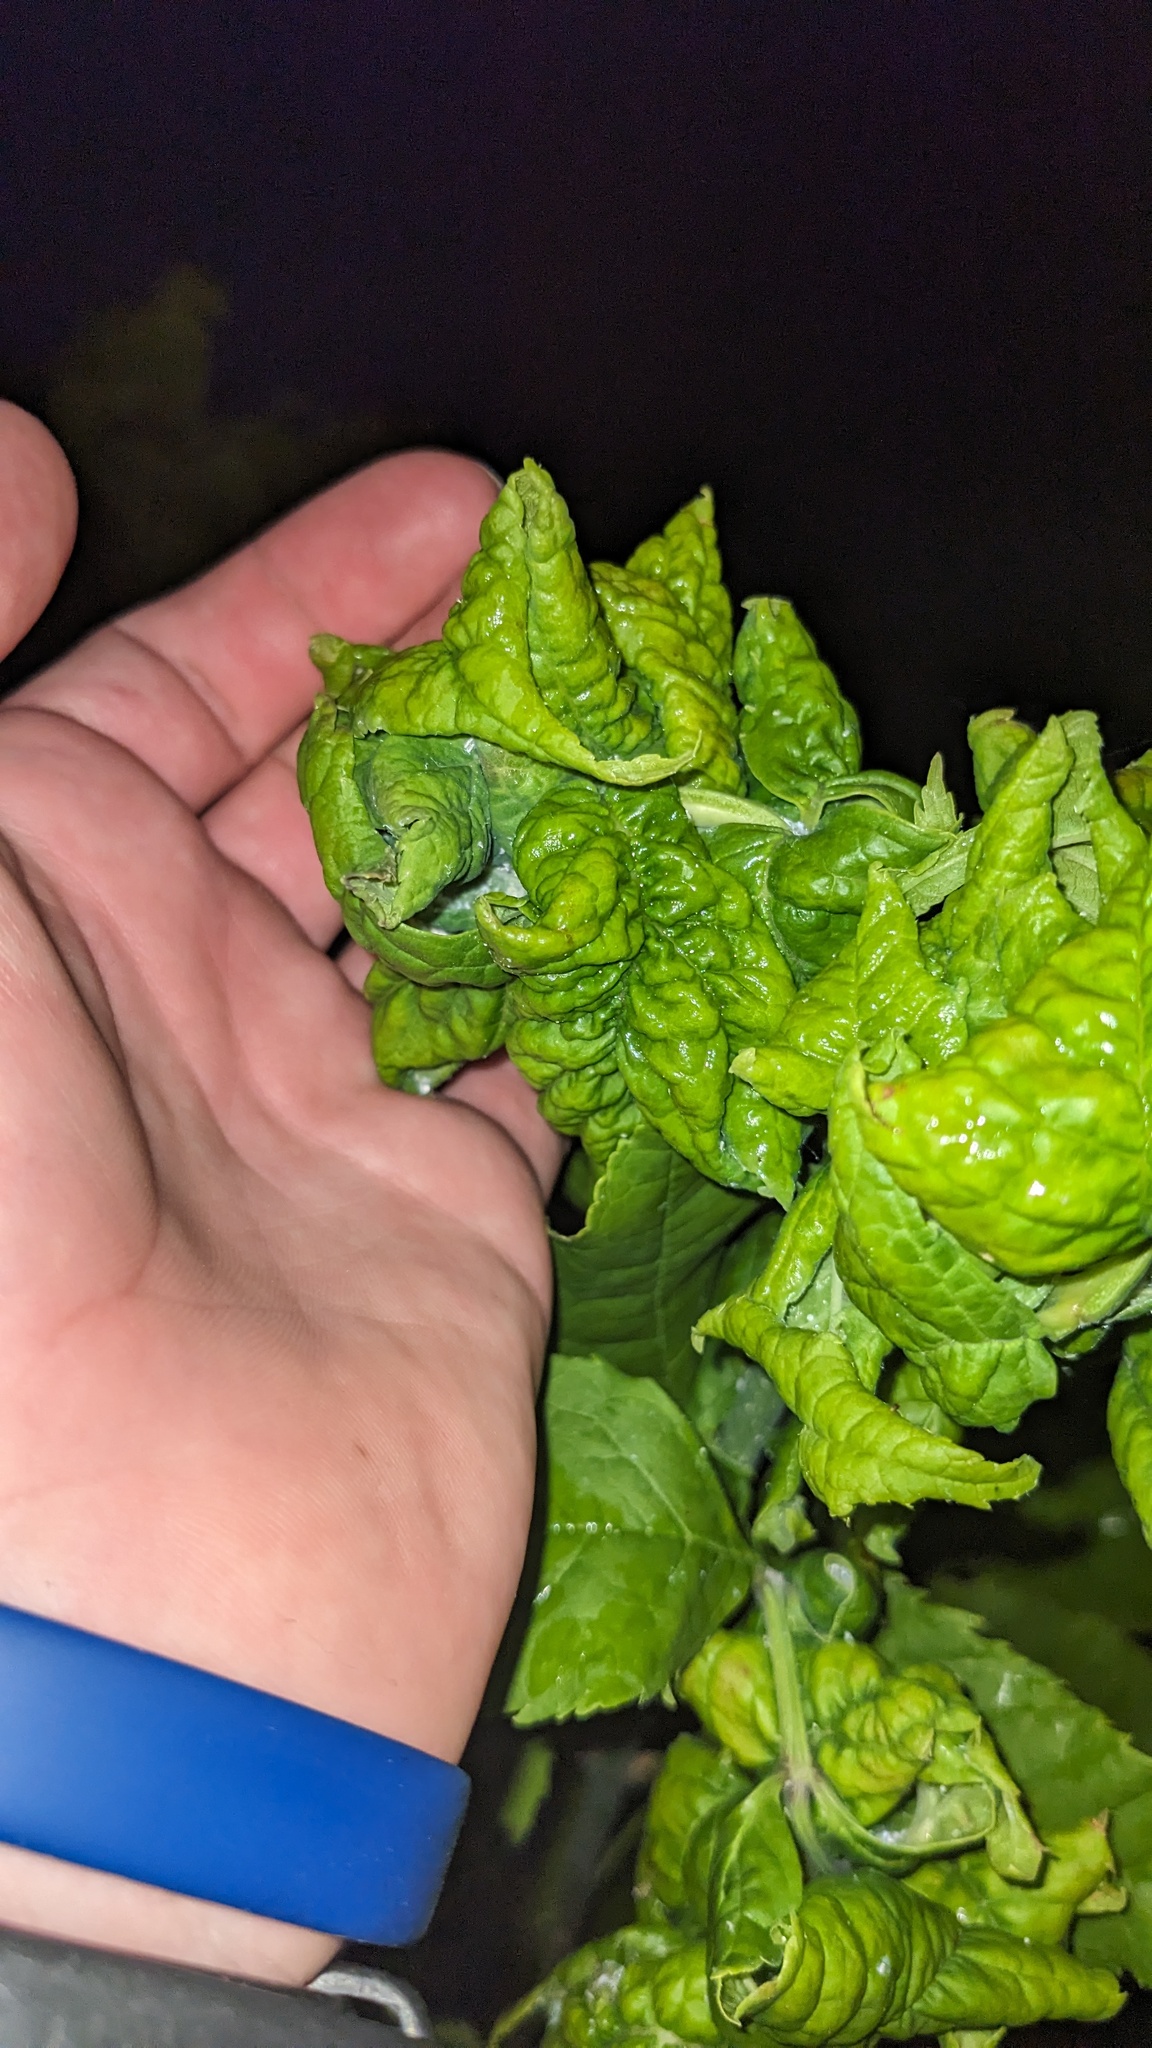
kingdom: Animalia
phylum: Arthropoda
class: Insecta
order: Hemiptera
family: Aphididae
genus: Prociphilus
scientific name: Prociphilus fraxinifolii
